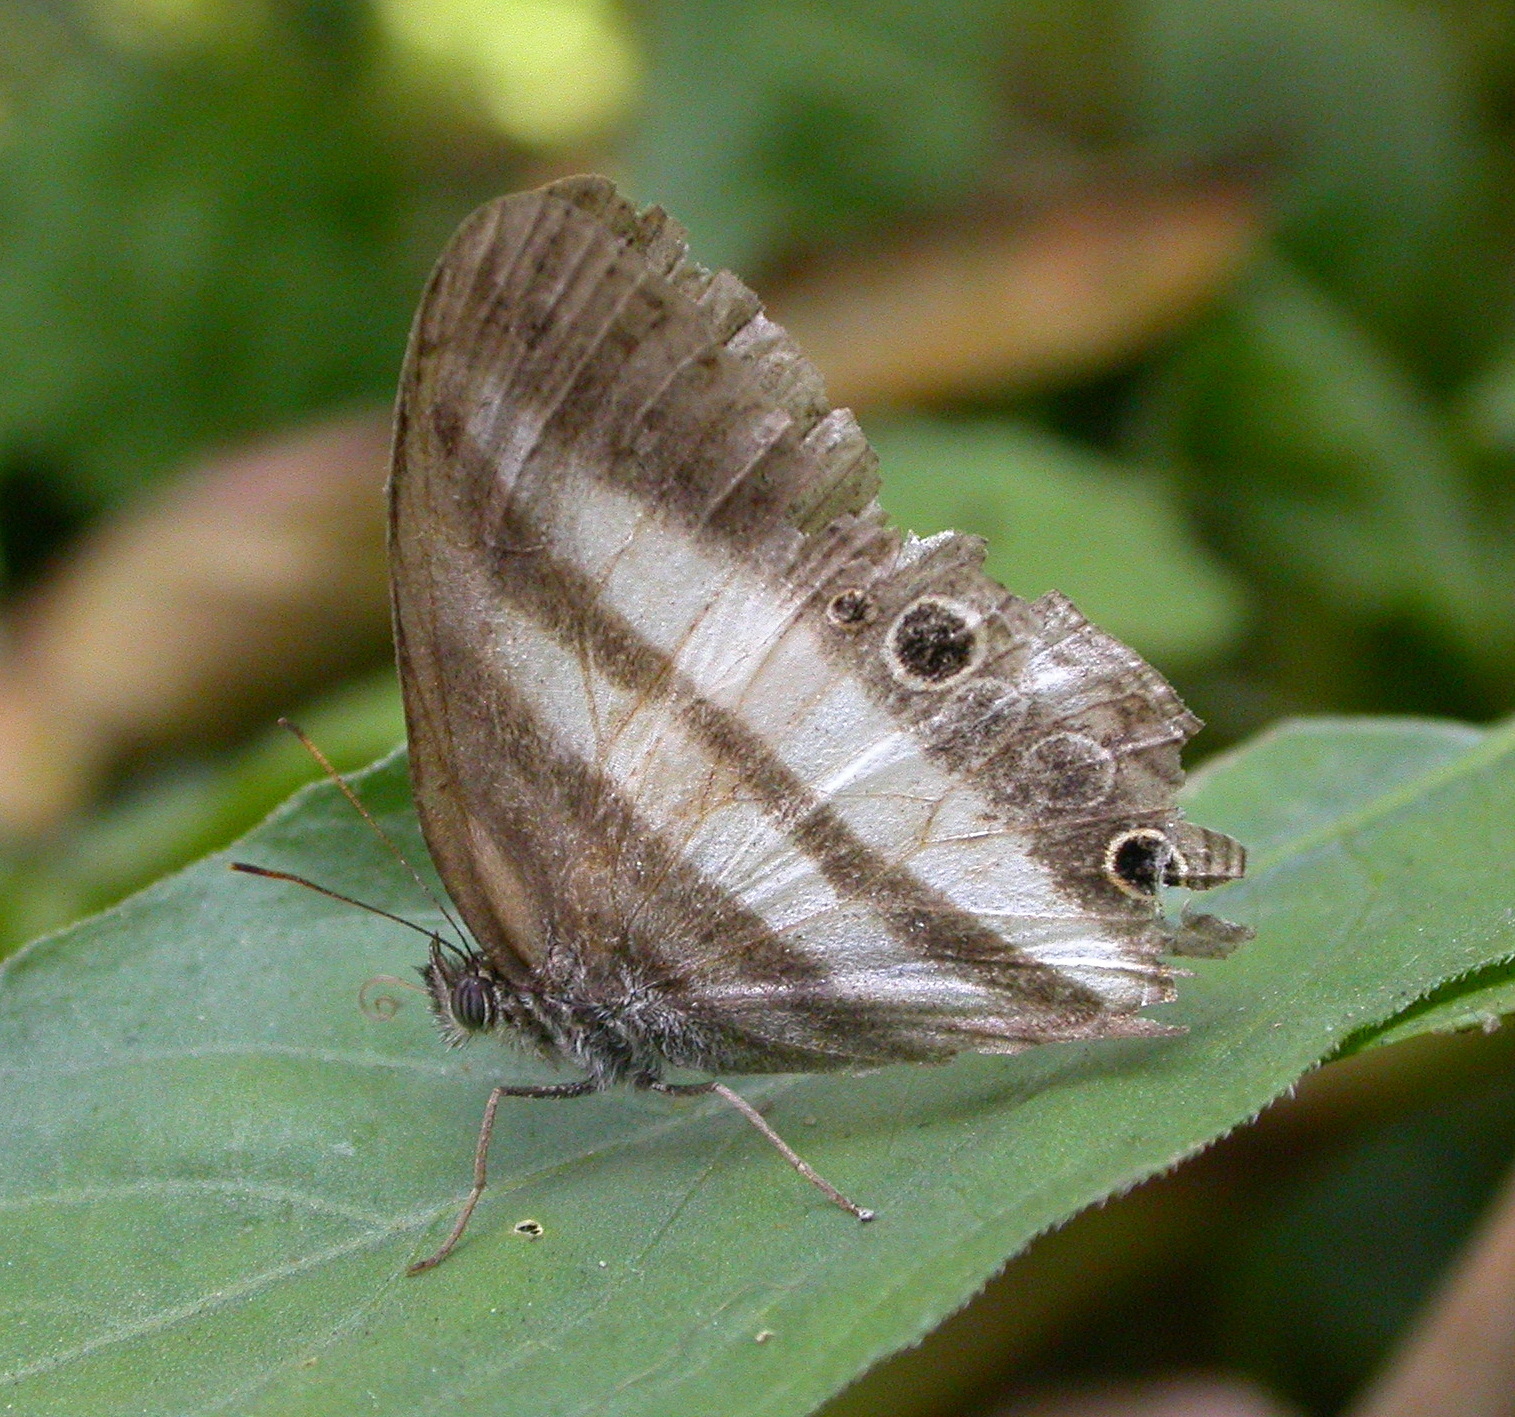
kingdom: Animalia
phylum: Arthropoda
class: Insecta
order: Lepidoptera
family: Nymphalidae
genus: Pareuptychia
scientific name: Pareuptychia hesione
